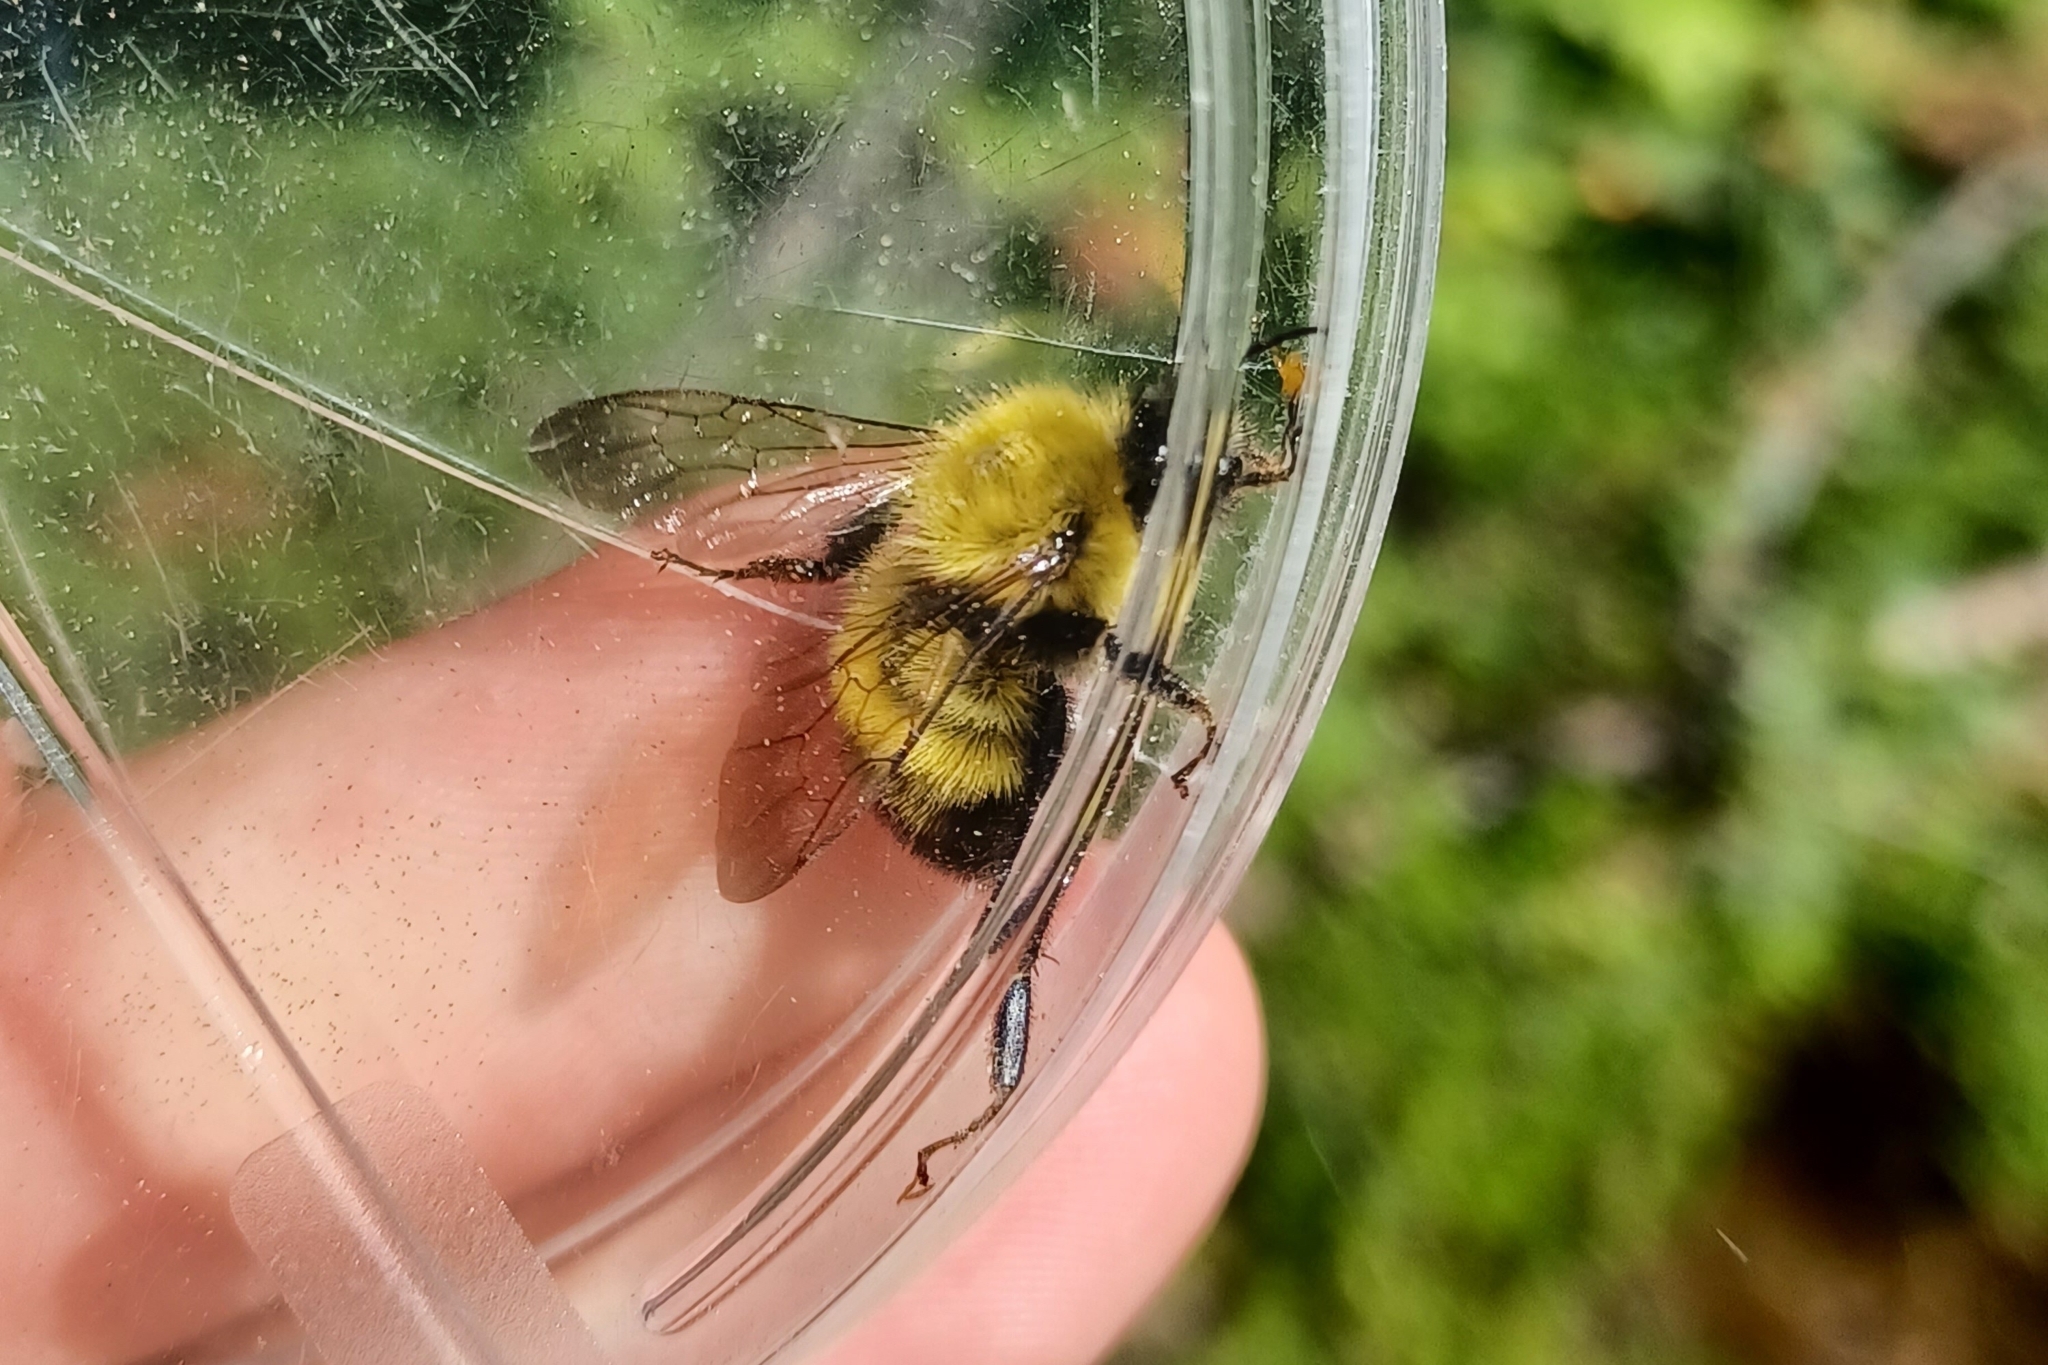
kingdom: Animalia
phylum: Arthropoda
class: Insecta
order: Hymenoptera
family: Apidae
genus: Bombus
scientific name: Bombus perplexus
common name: Confusing bumble bee
